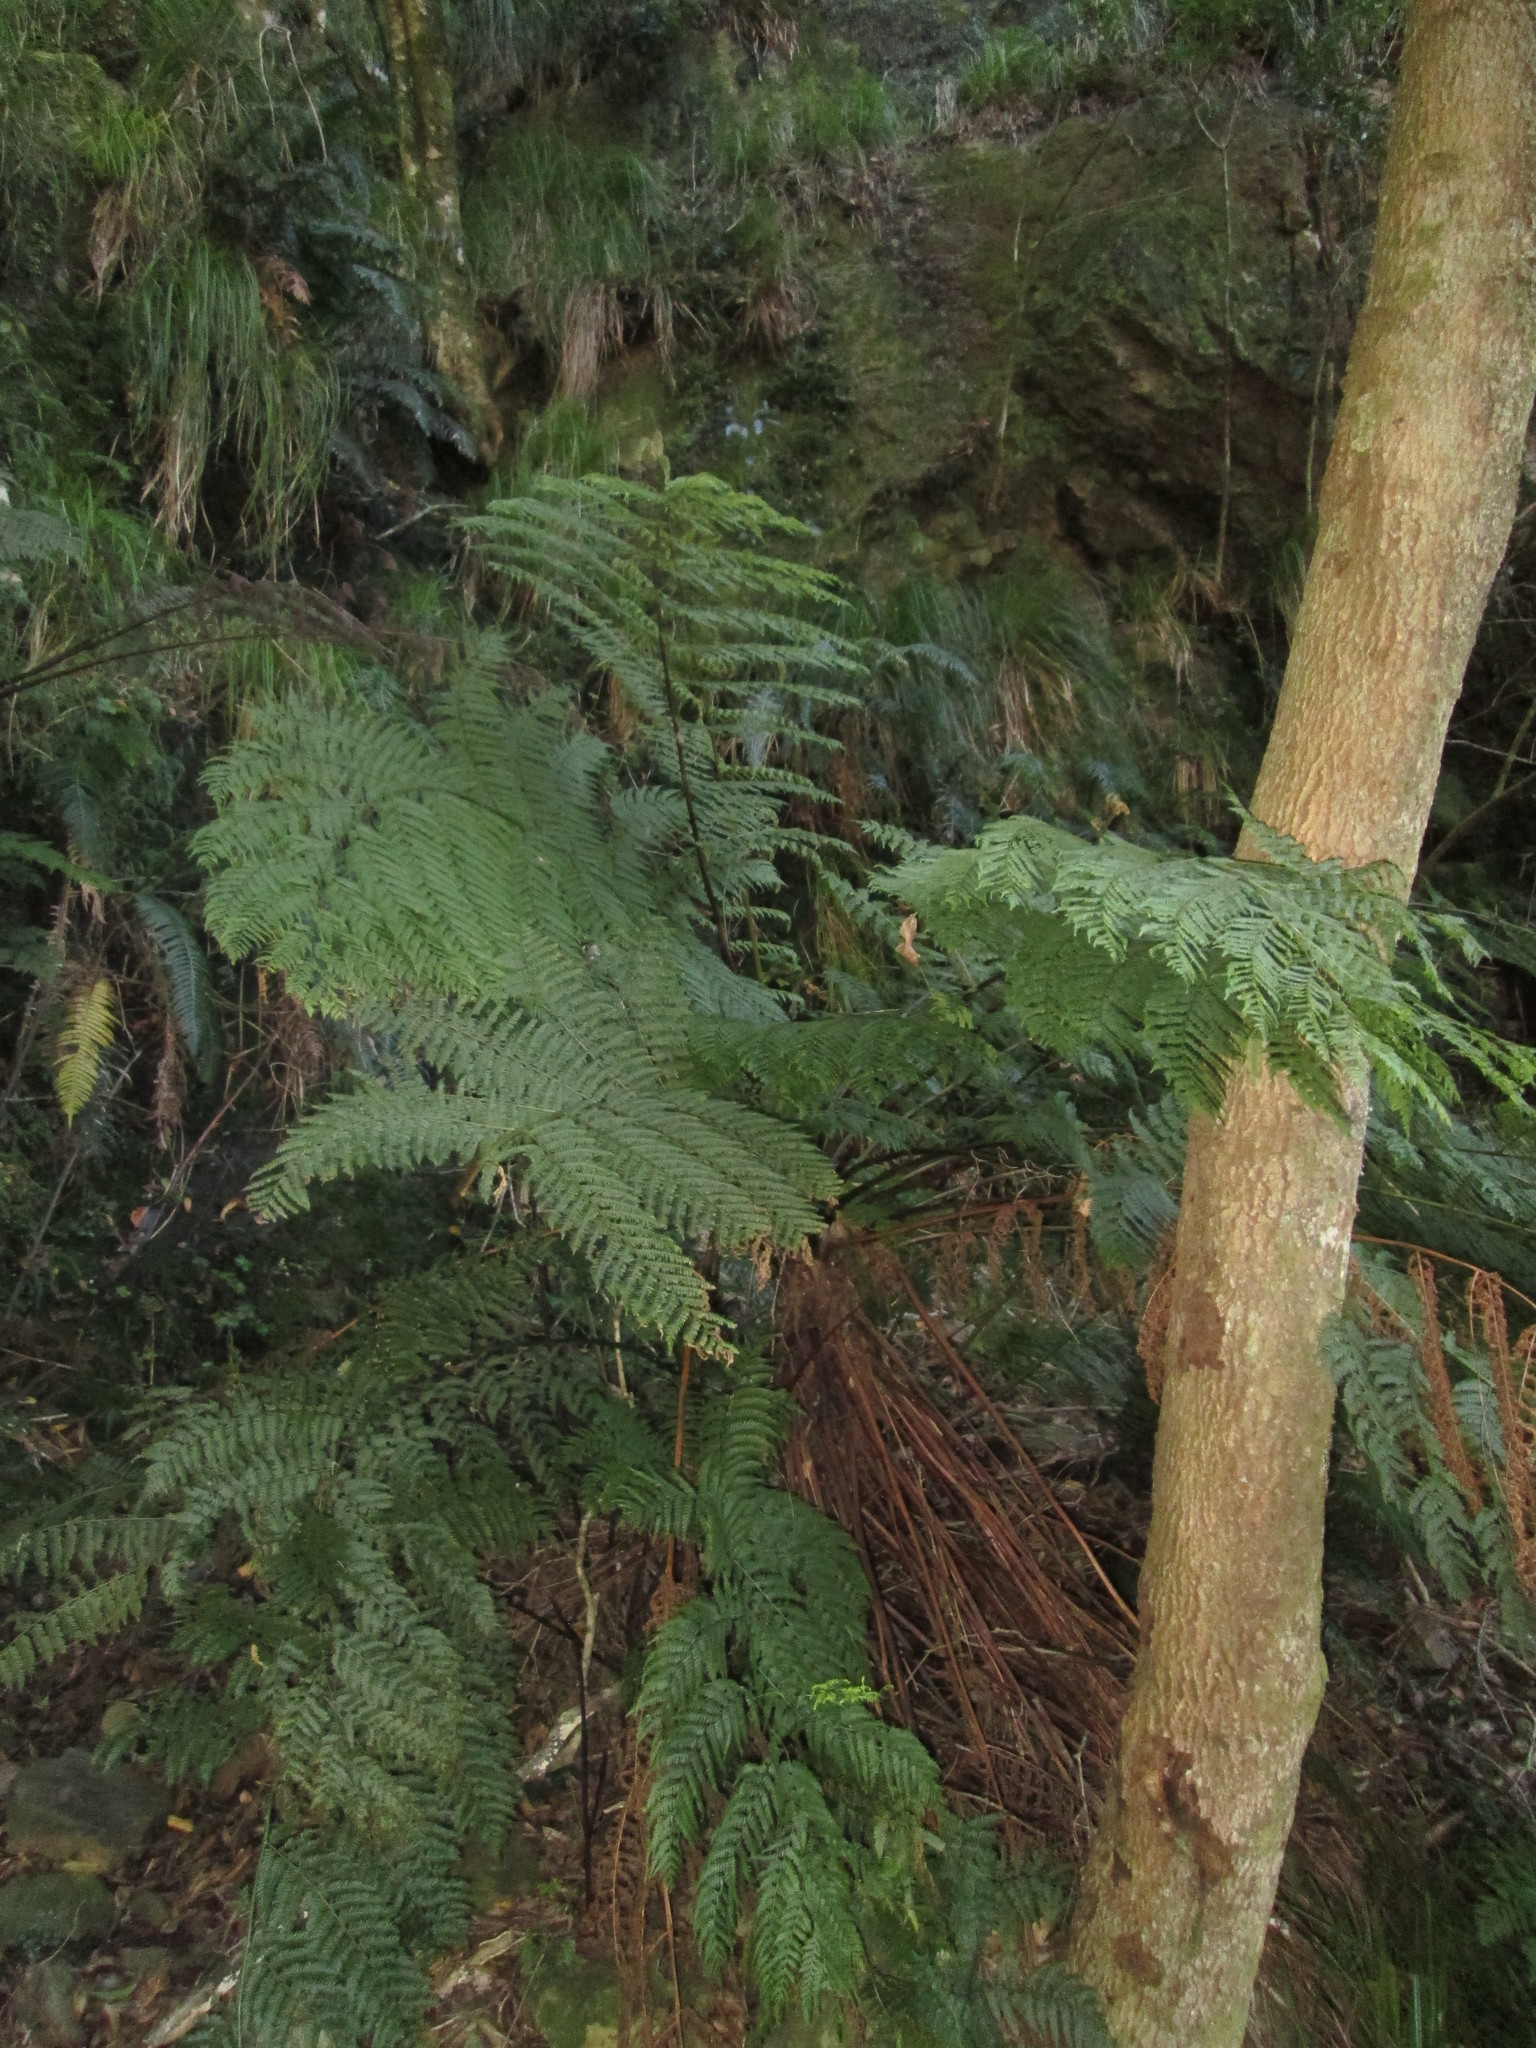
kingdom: Plantae
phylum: Tracheophyta
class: Polypodiopsida
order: Cyatheales
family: Cyatheaceae
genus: Gymnosphaera
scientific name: Gymnosphaera capensis
